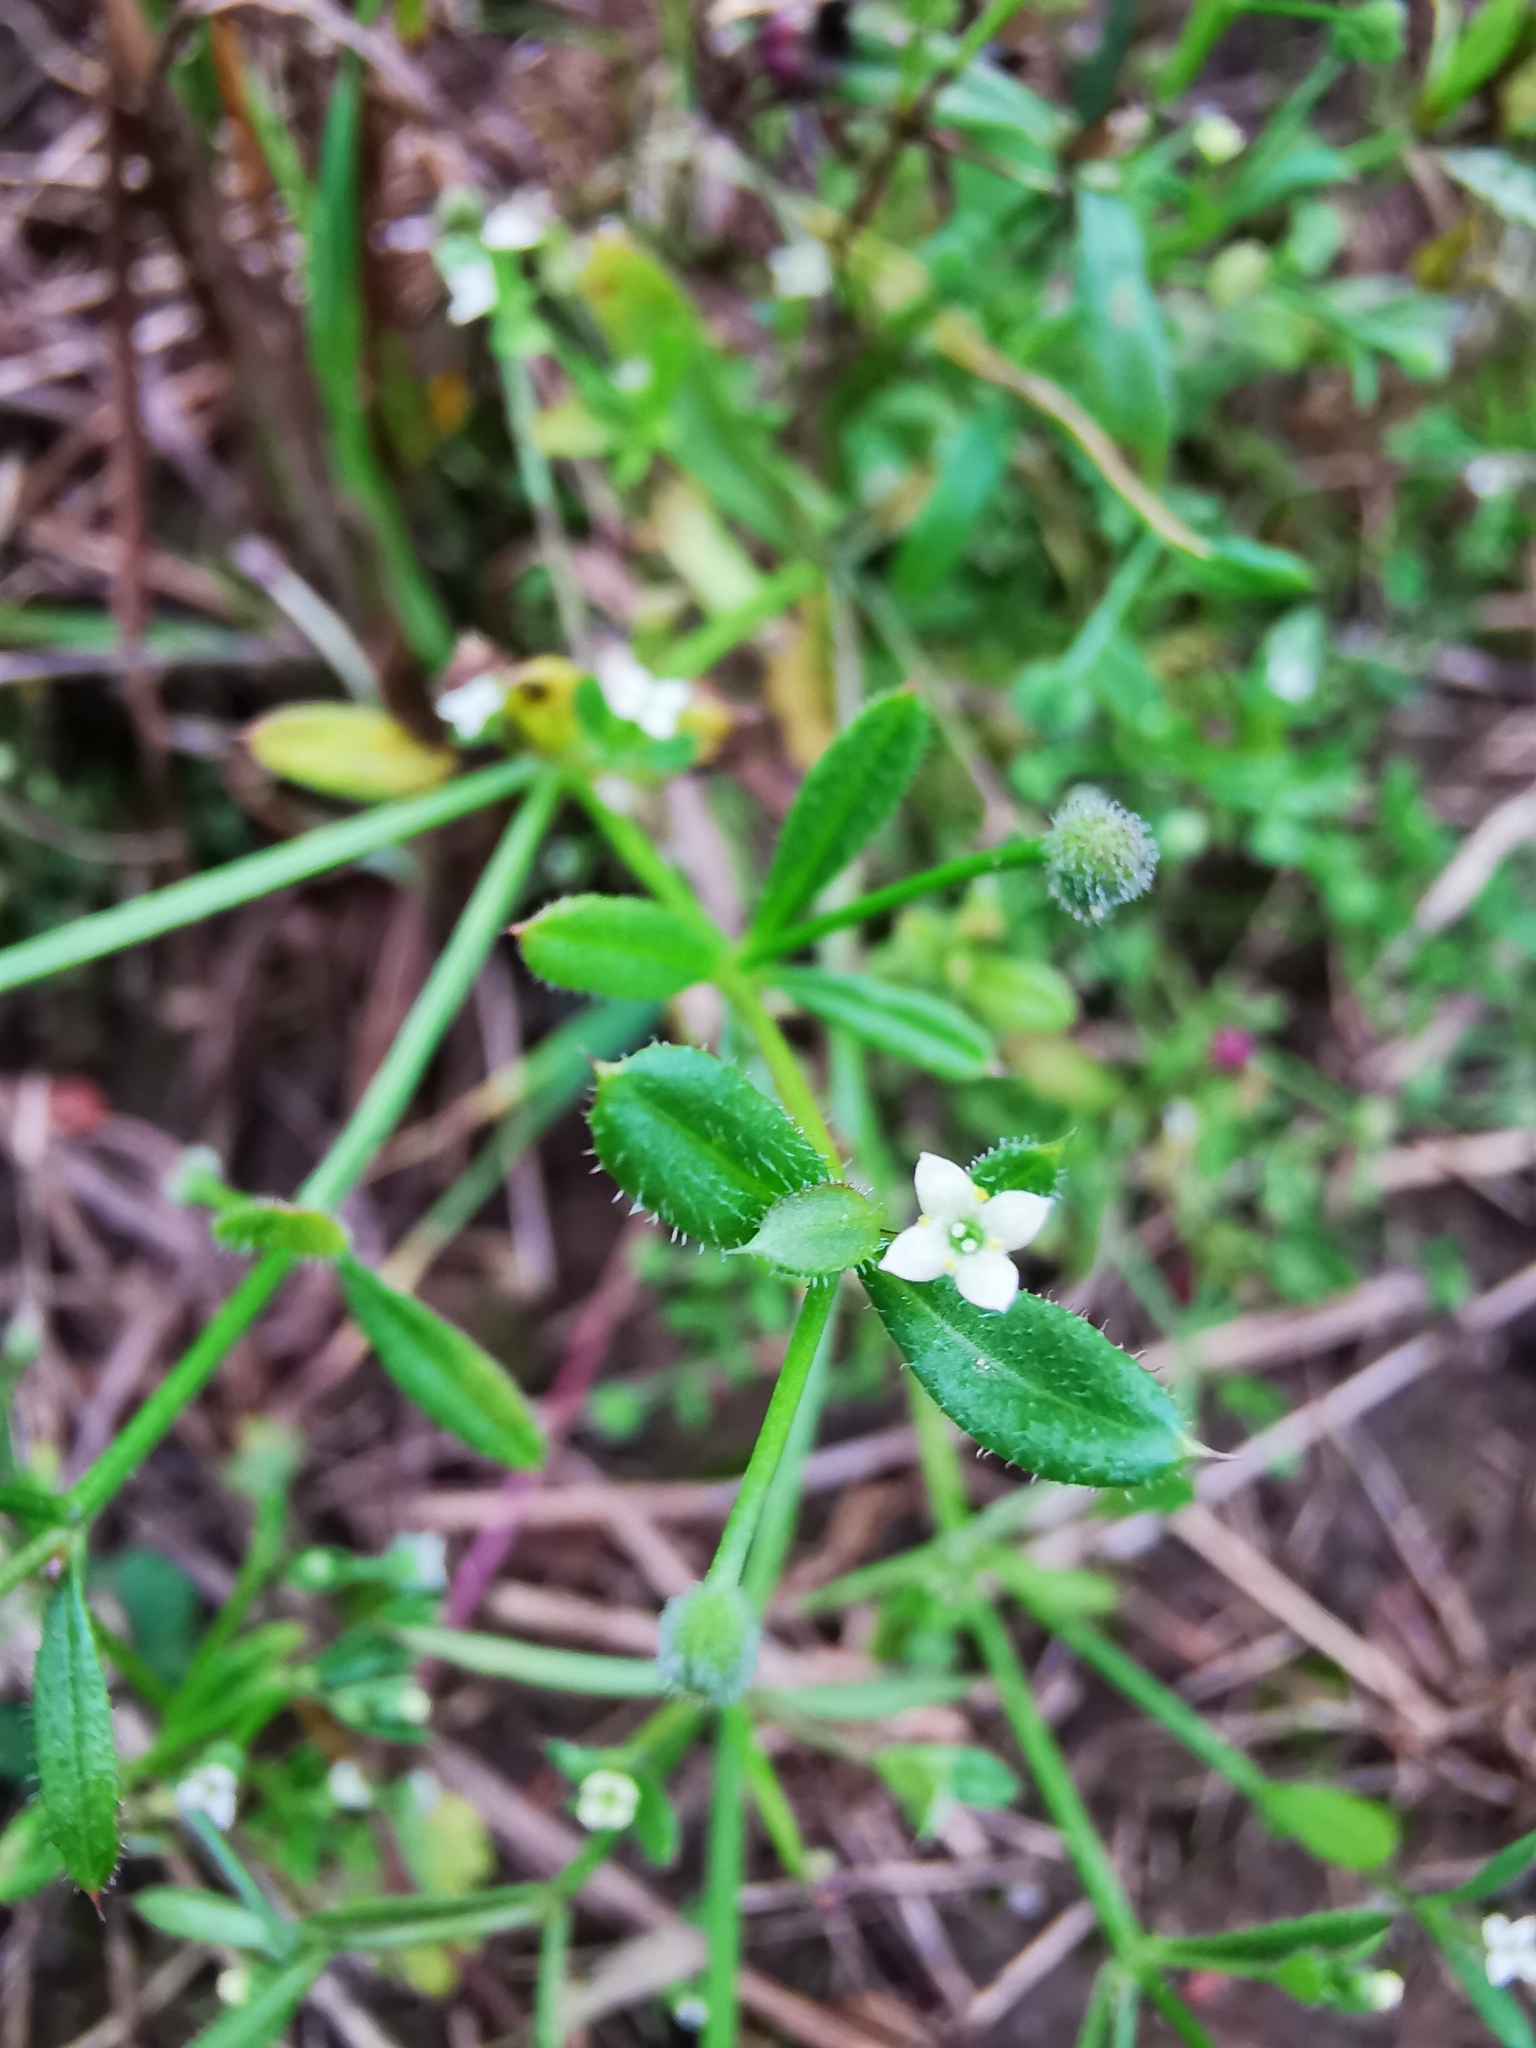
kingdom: Plantae
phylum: Tracheophyta
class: Magnoliopsida
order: Gentianales
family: Rubiaceae
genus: Galium
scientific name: Galium aparine
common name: Cleavers
